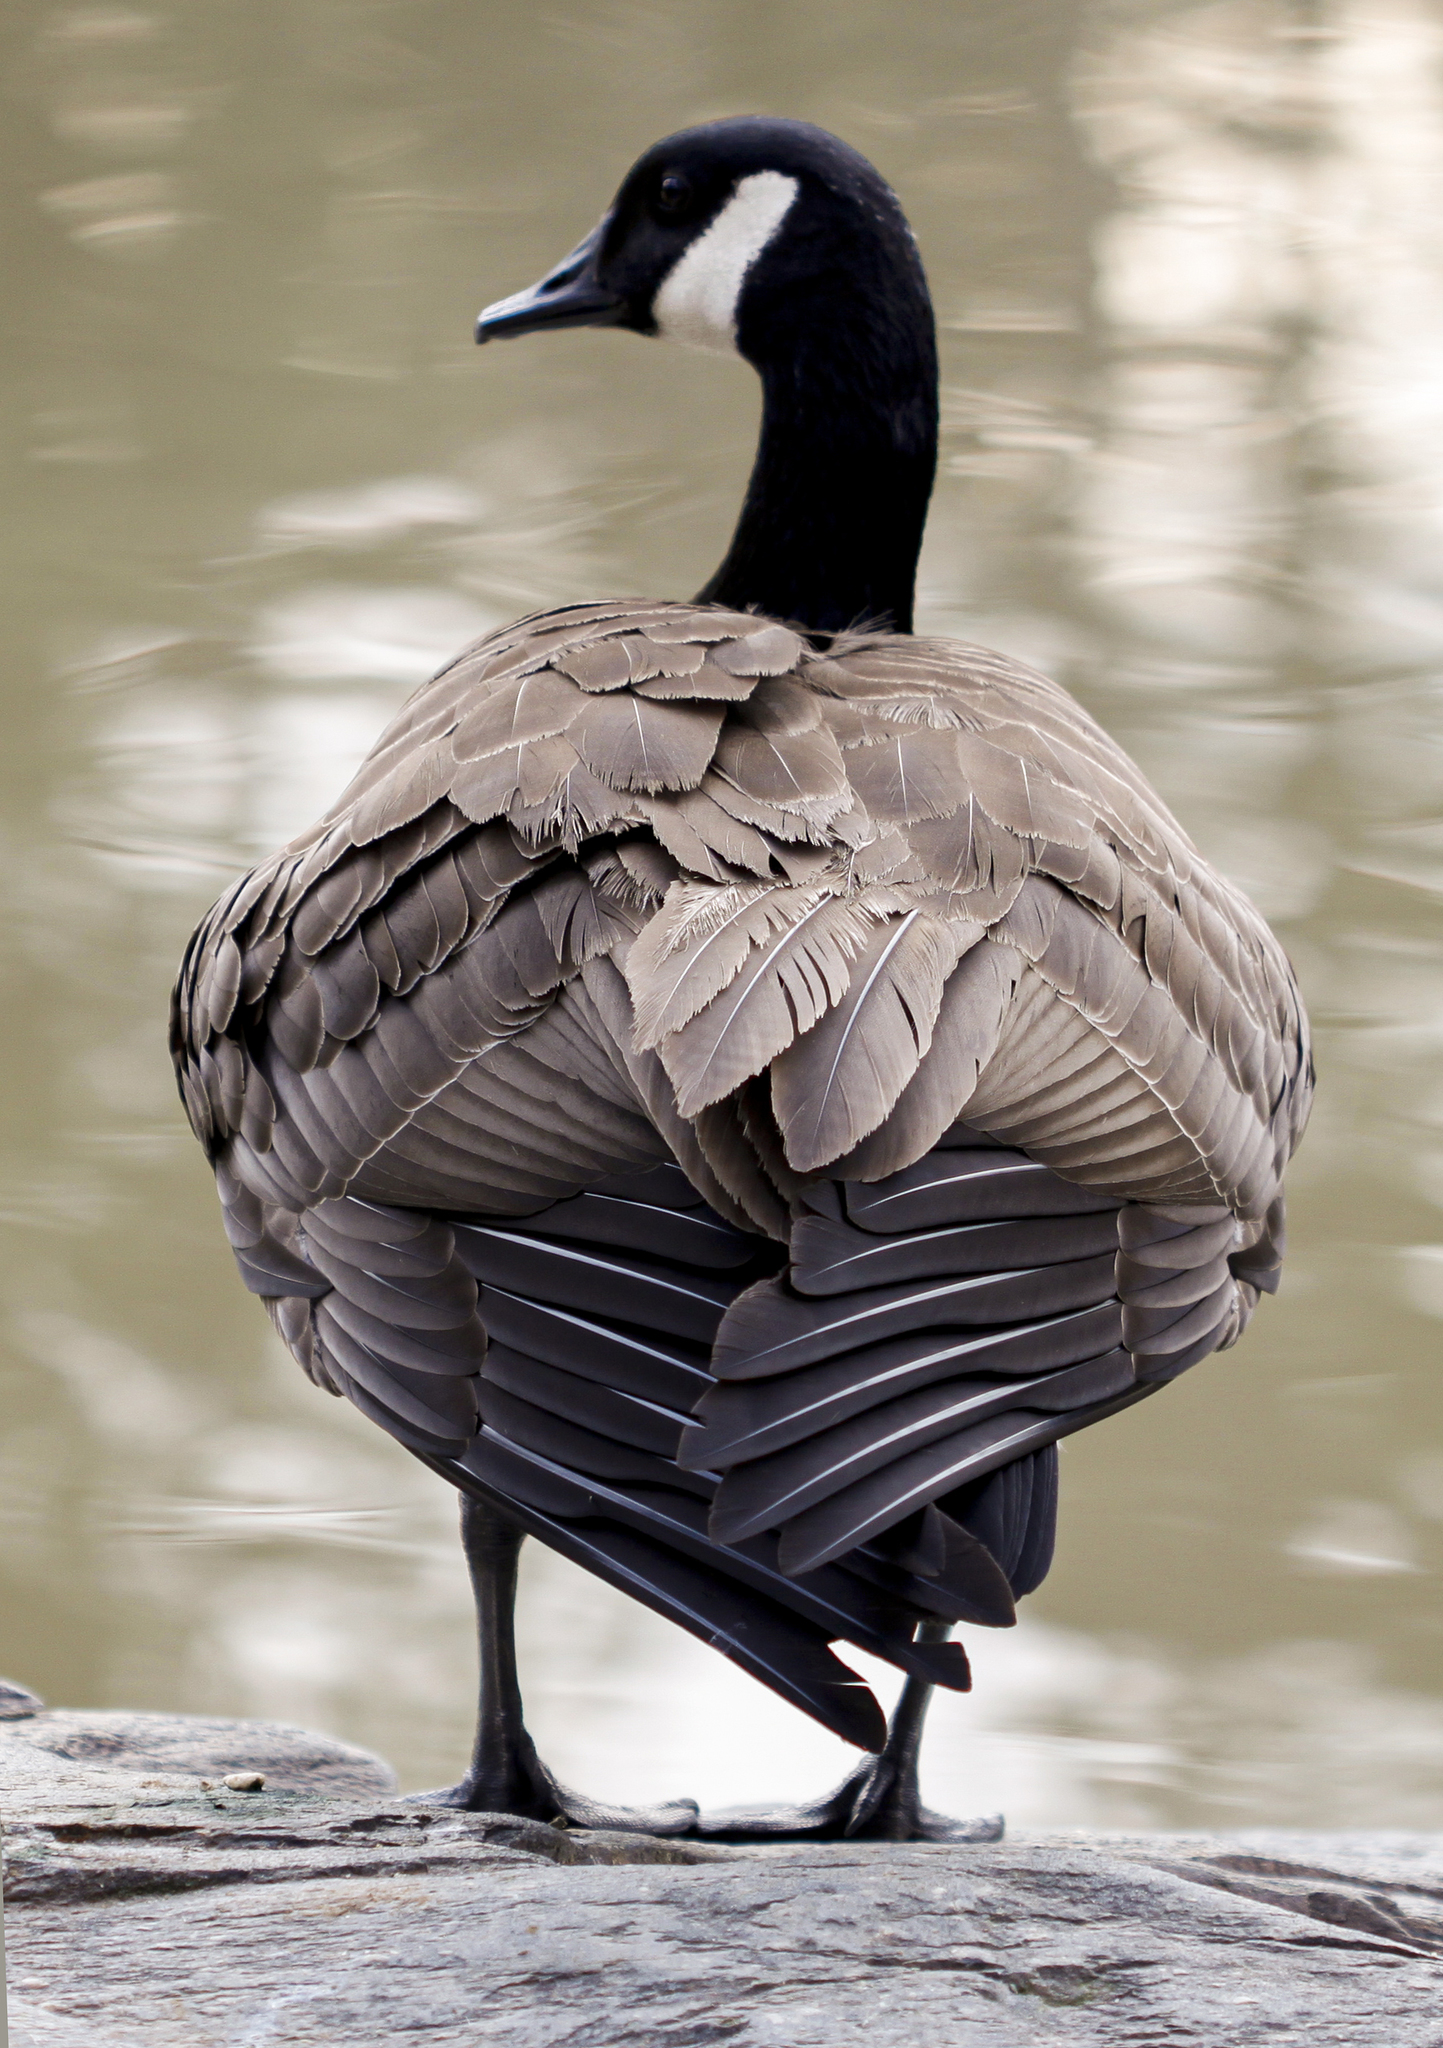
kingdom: Animalia
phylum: Chordata
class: Aves
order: Anseriformes
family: Anatidae
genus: Branta
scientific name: Branta canadensis
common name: Canada goose
